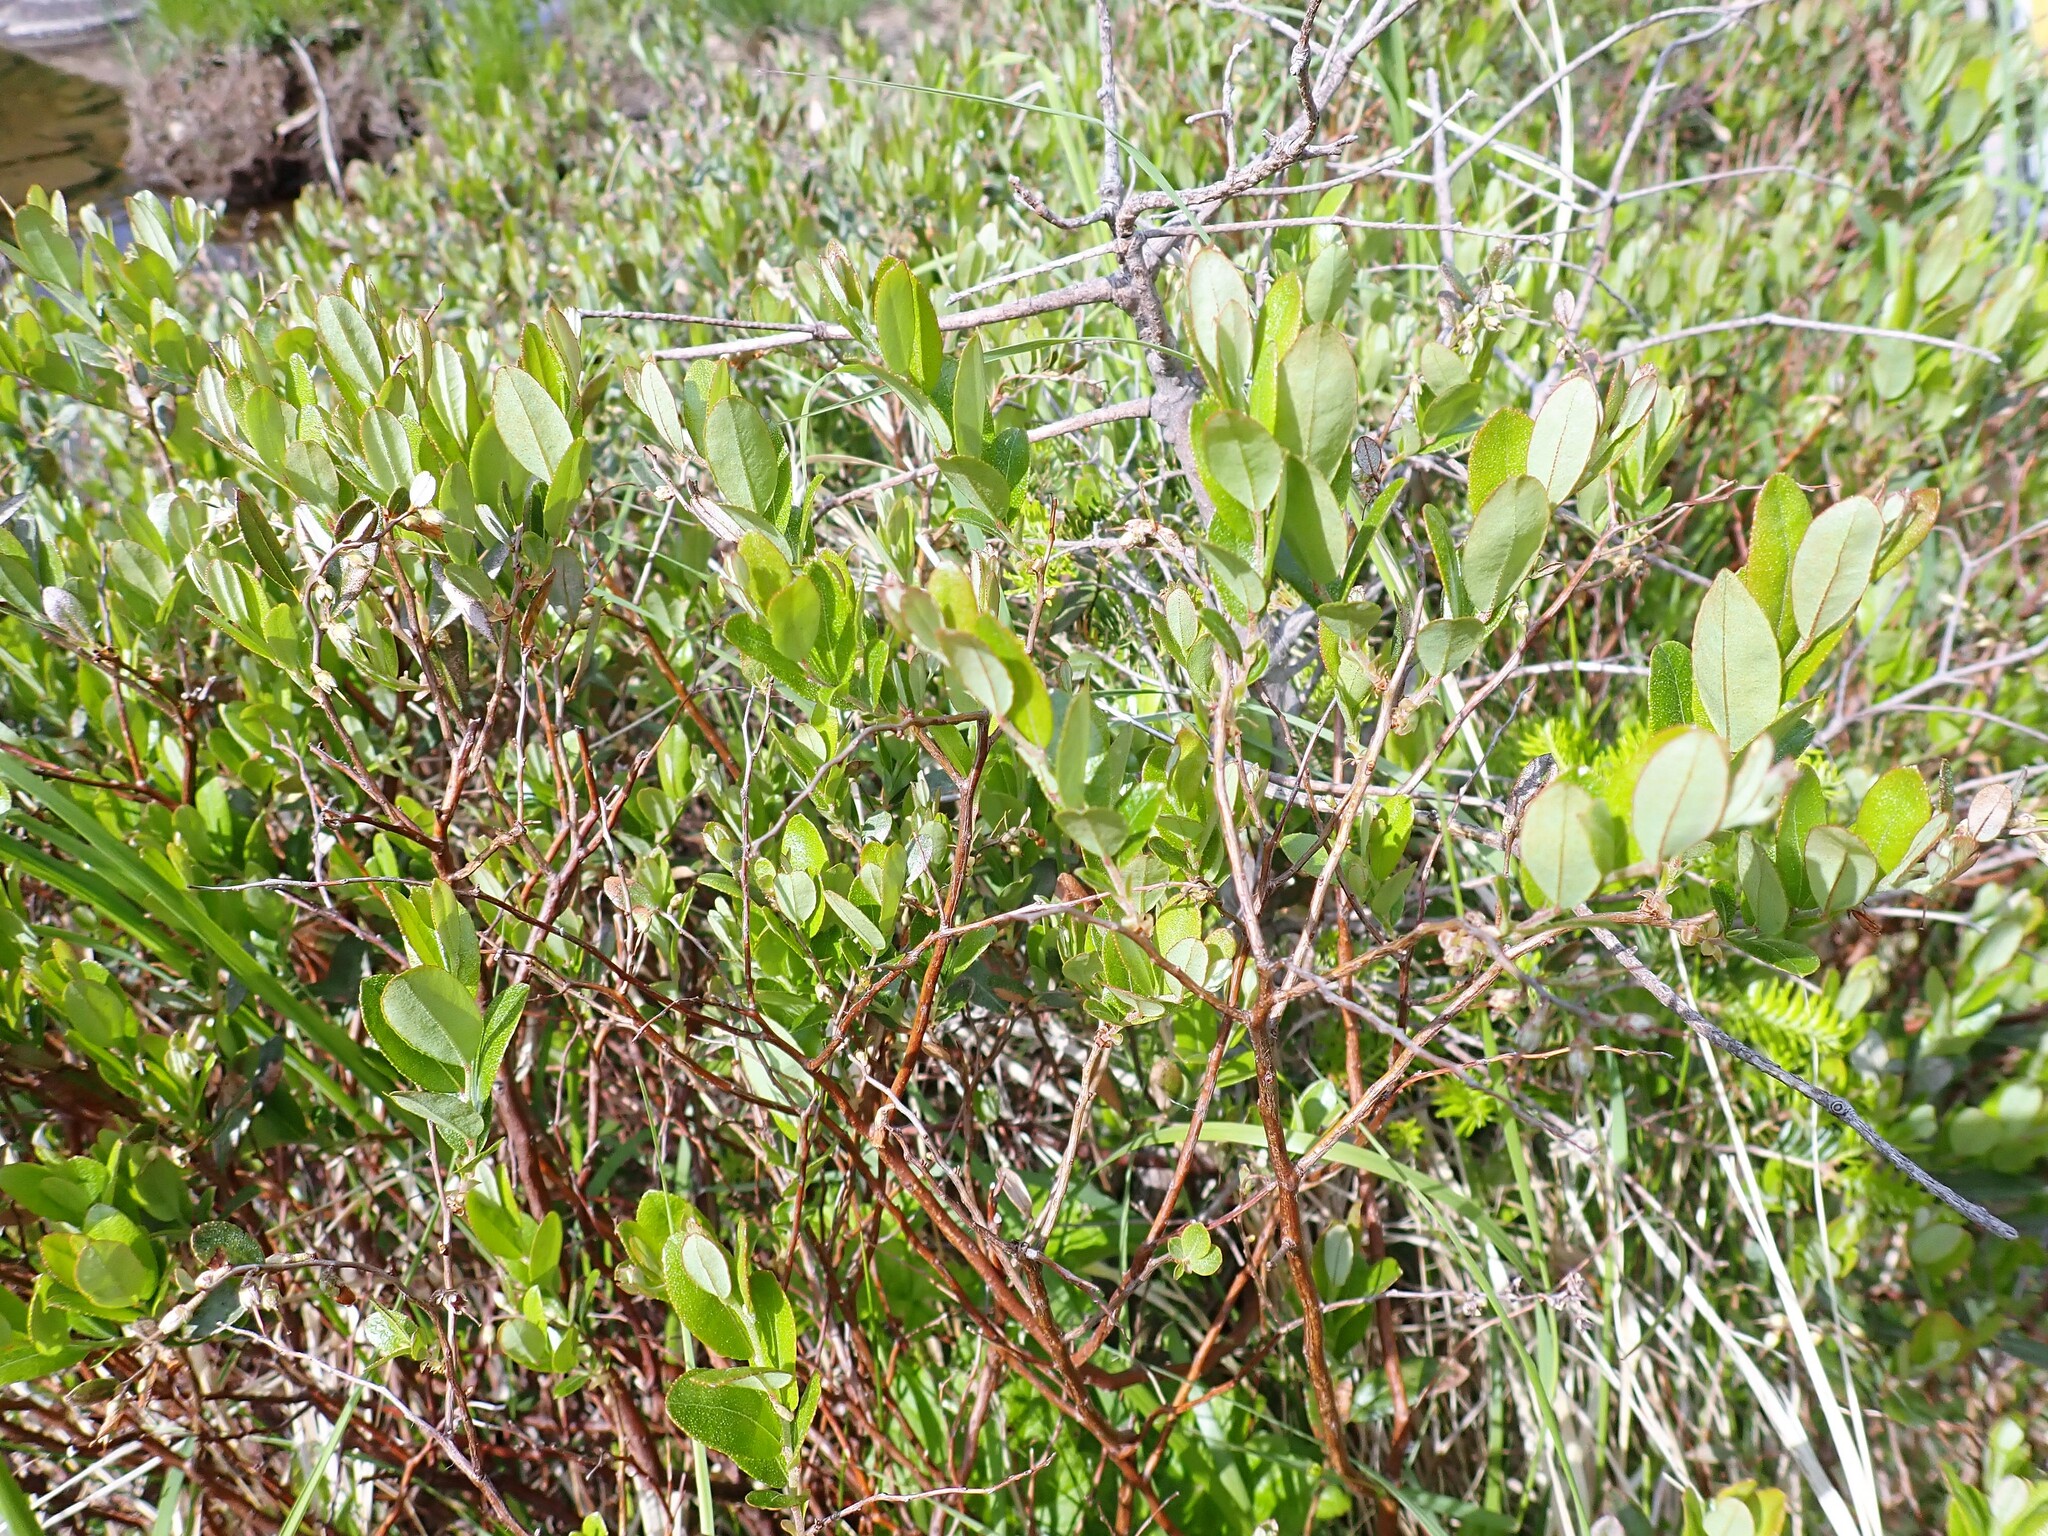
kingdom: Plantae
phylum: Tracheophyta
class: Magnoliopsida
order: Ericales
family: Ericaceae
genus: Chamaedaphne
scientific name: Chamaedaphne calyculata
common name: Leatherleaf
